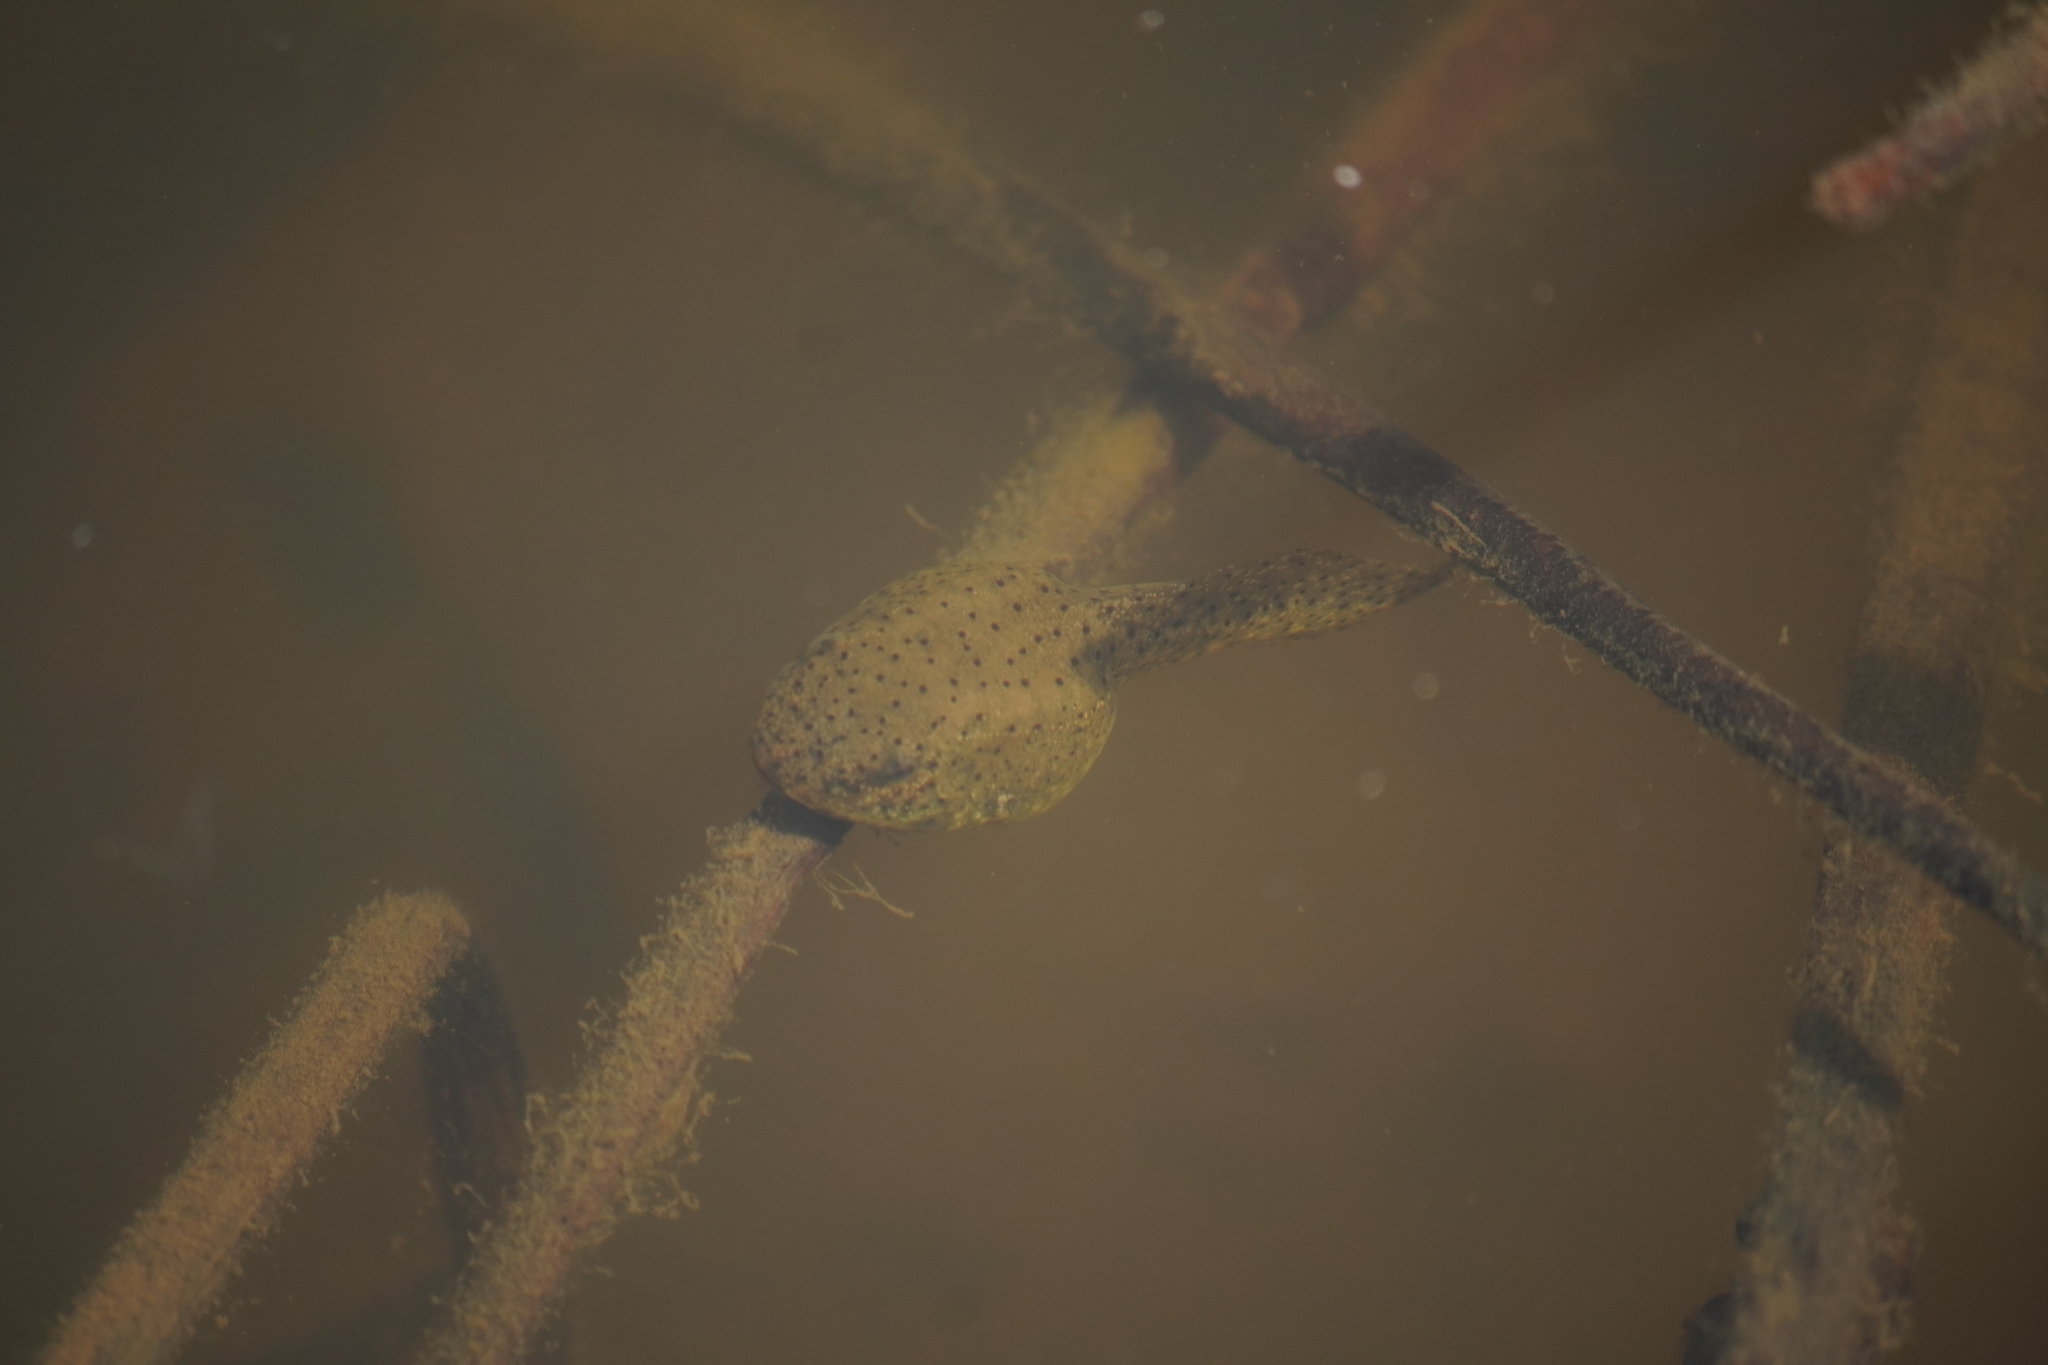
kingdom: Animalia
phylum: Chordata
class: Amphibia
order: Anura
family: Ranidae
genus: Lithobates
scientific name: Lithobates catesbeianus
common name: American bullfrog
